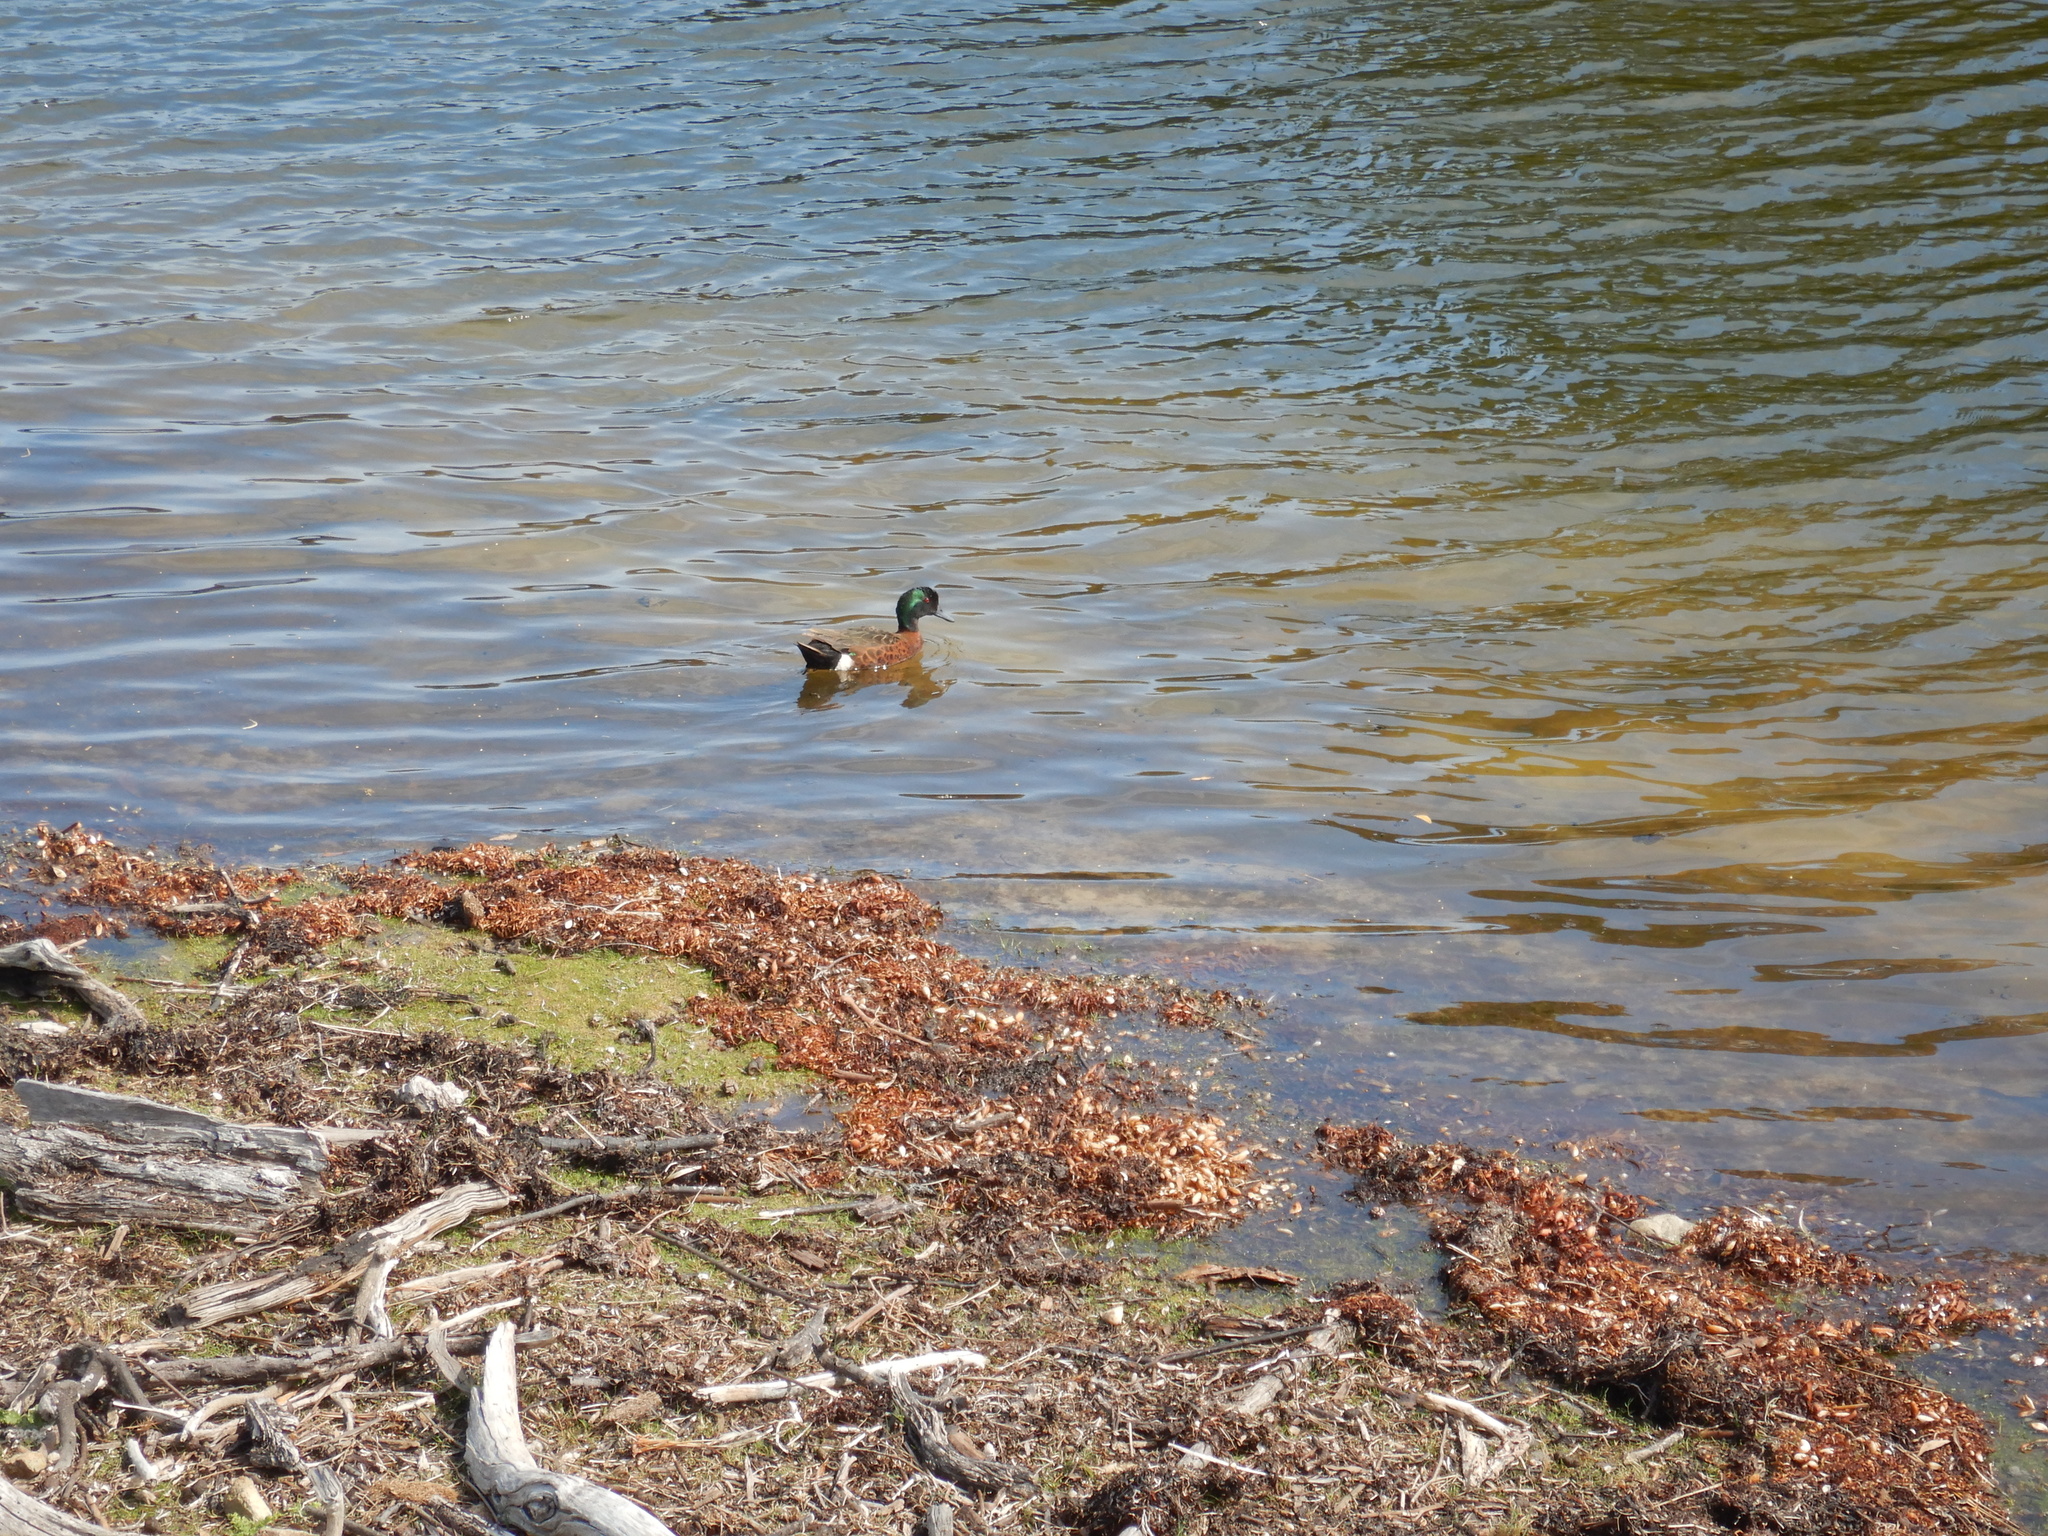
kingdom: Animalia
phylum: Chordata
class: Aves
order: Anseriformes
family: Anatidae
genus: Anas
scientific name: Anas castanea
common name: Chestnut teal
